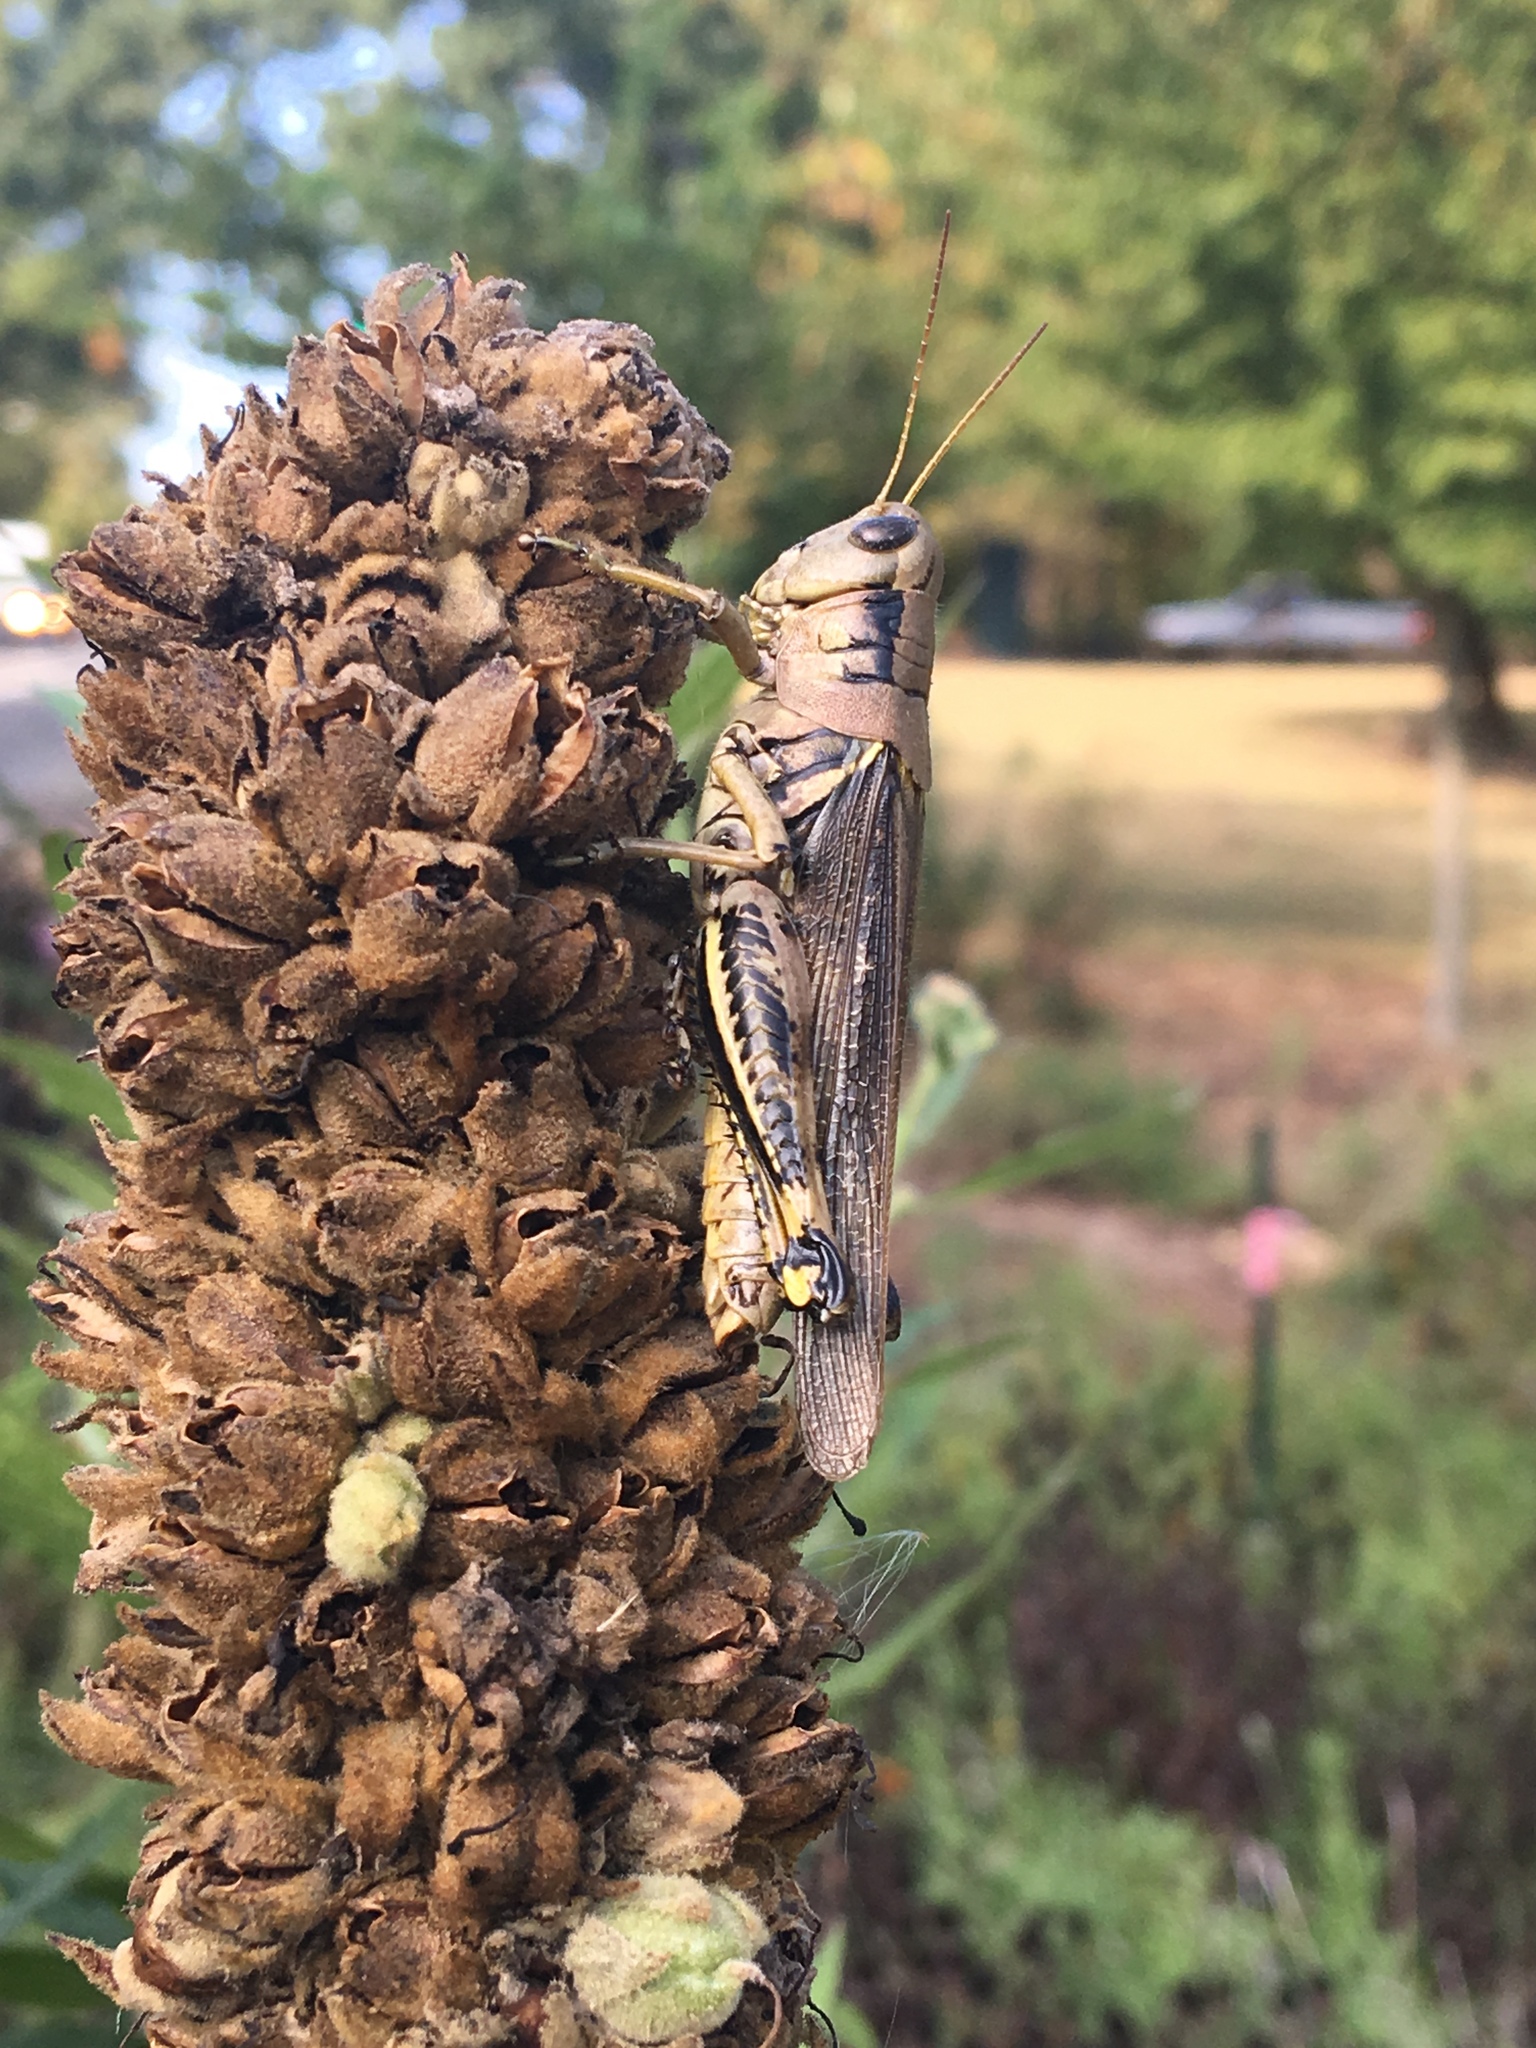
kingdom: Animalia
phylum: Arthropoda
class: Insecta
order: Orthoptera
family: Acrididae
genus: Melanoplus
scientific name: Melanoplus differentialis
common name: Differential grasshopper
